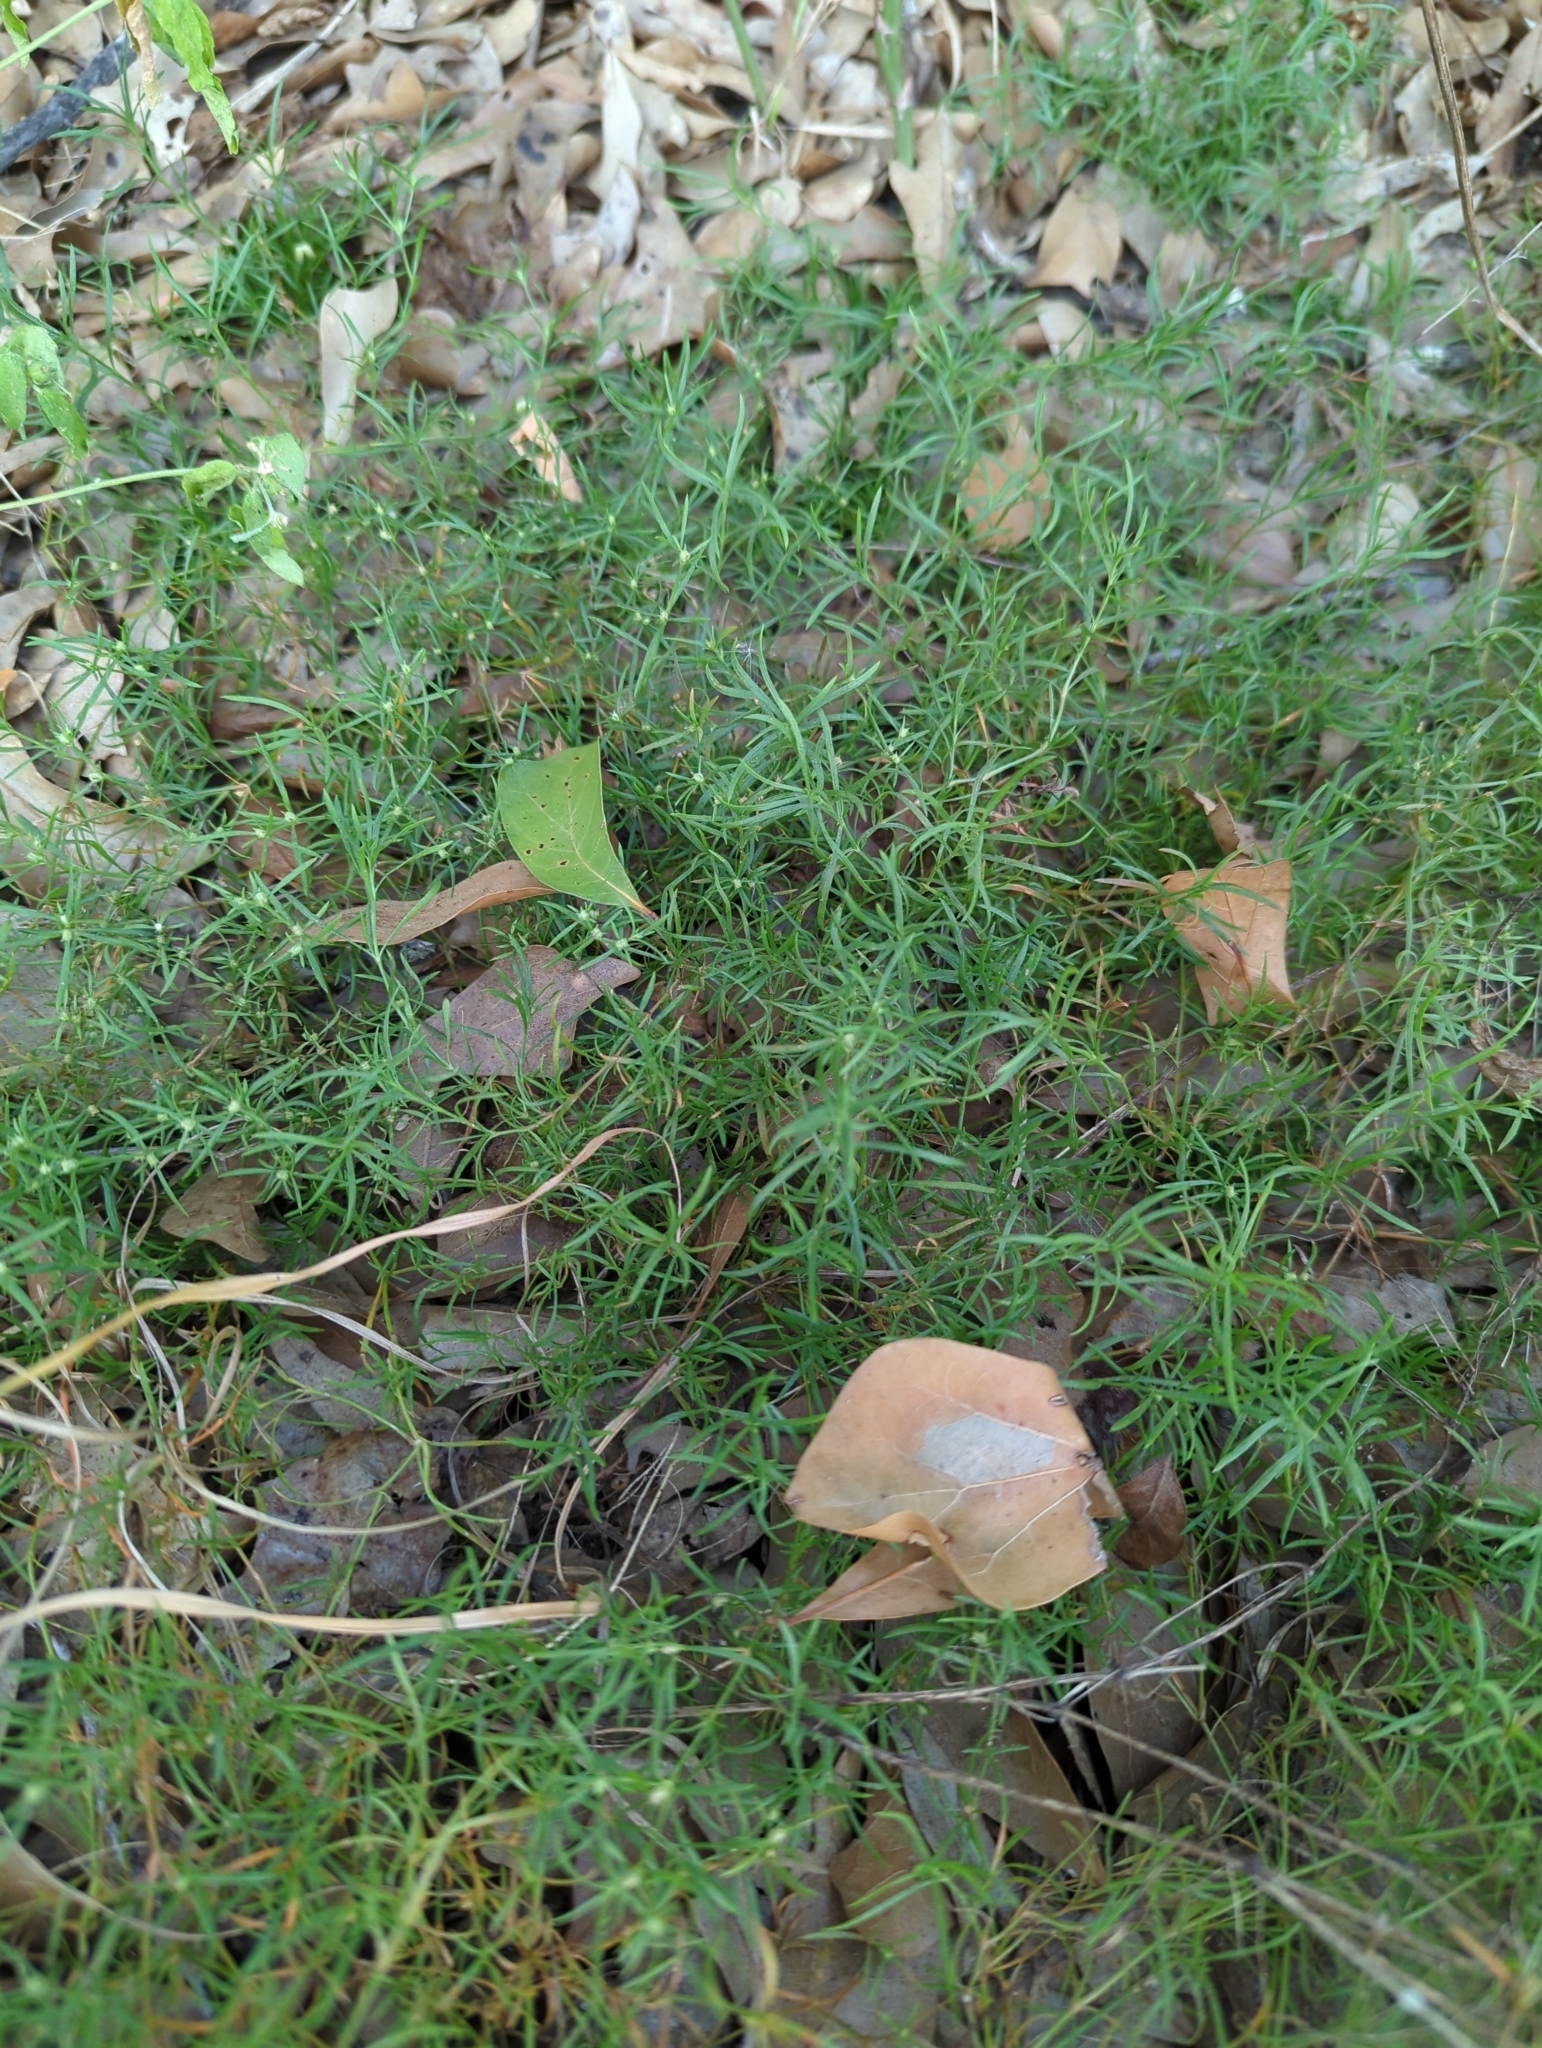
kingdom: Plantae
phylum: Tracheophyta
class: Magnoliopsida
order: Lamiales
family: Tetrachondraceae
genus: Polypremum
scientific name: Polypremum procumbens
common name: Juniper-leaf
